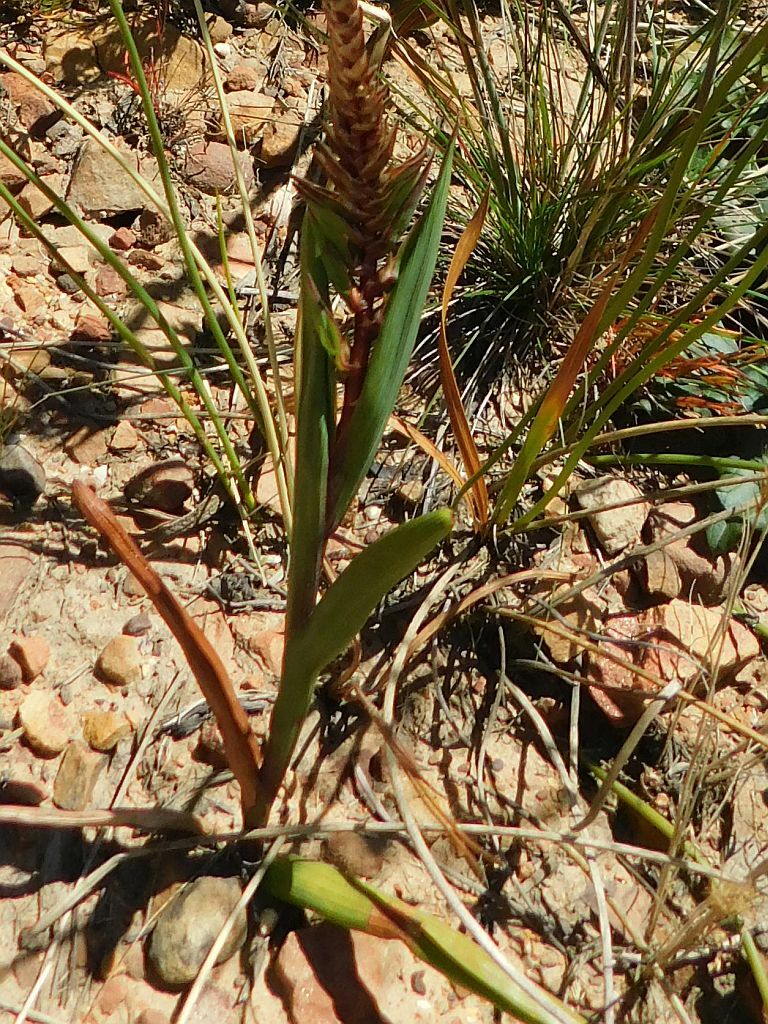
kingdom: Plantae
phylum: Tracheophyta
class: Liliopsida
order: Asparagales
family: Iridaceae
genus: Micranthus
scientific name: Micranthus tubulosus
